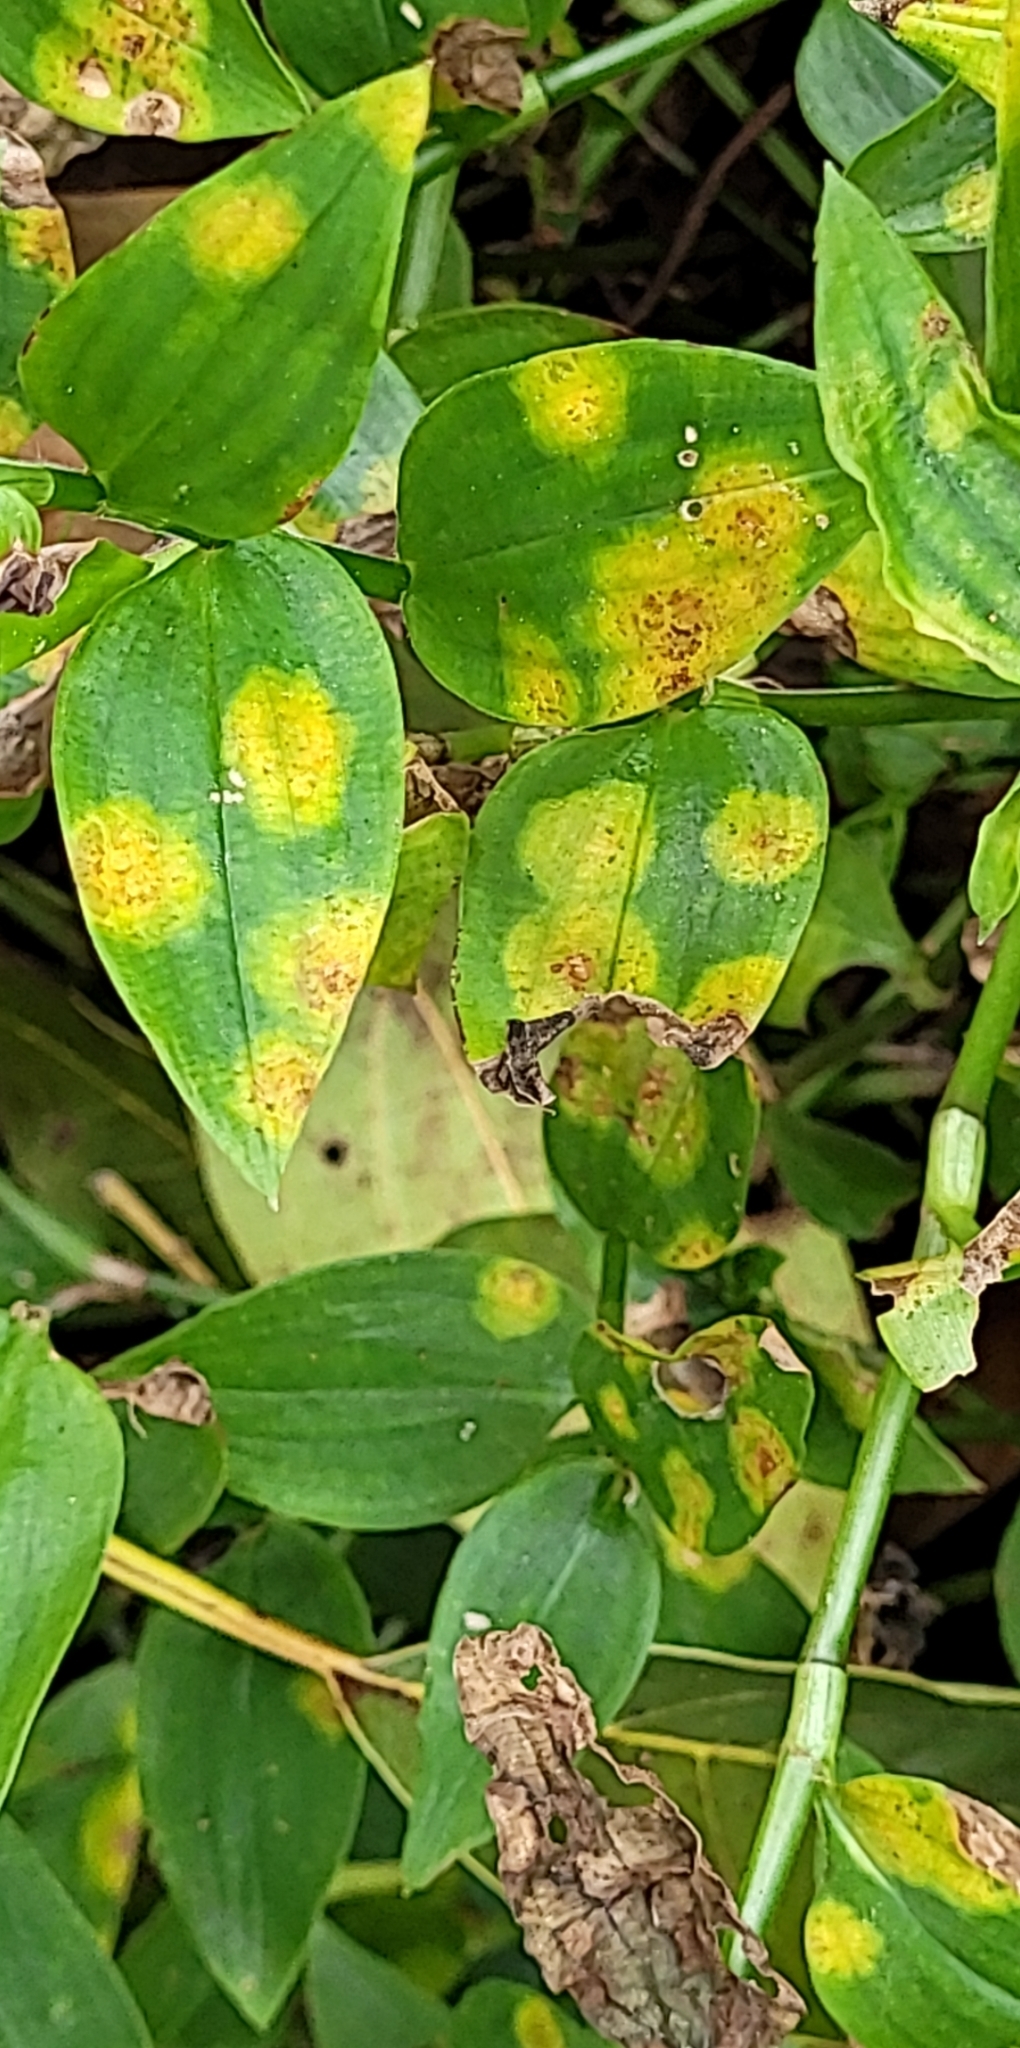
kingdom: Fungi
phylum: Basidiomycota
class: Exobasidiomycetes
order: Exobasidiales
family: Brachybasidiaceae
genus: Kordyana
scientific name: Kordyana brasiliensis
